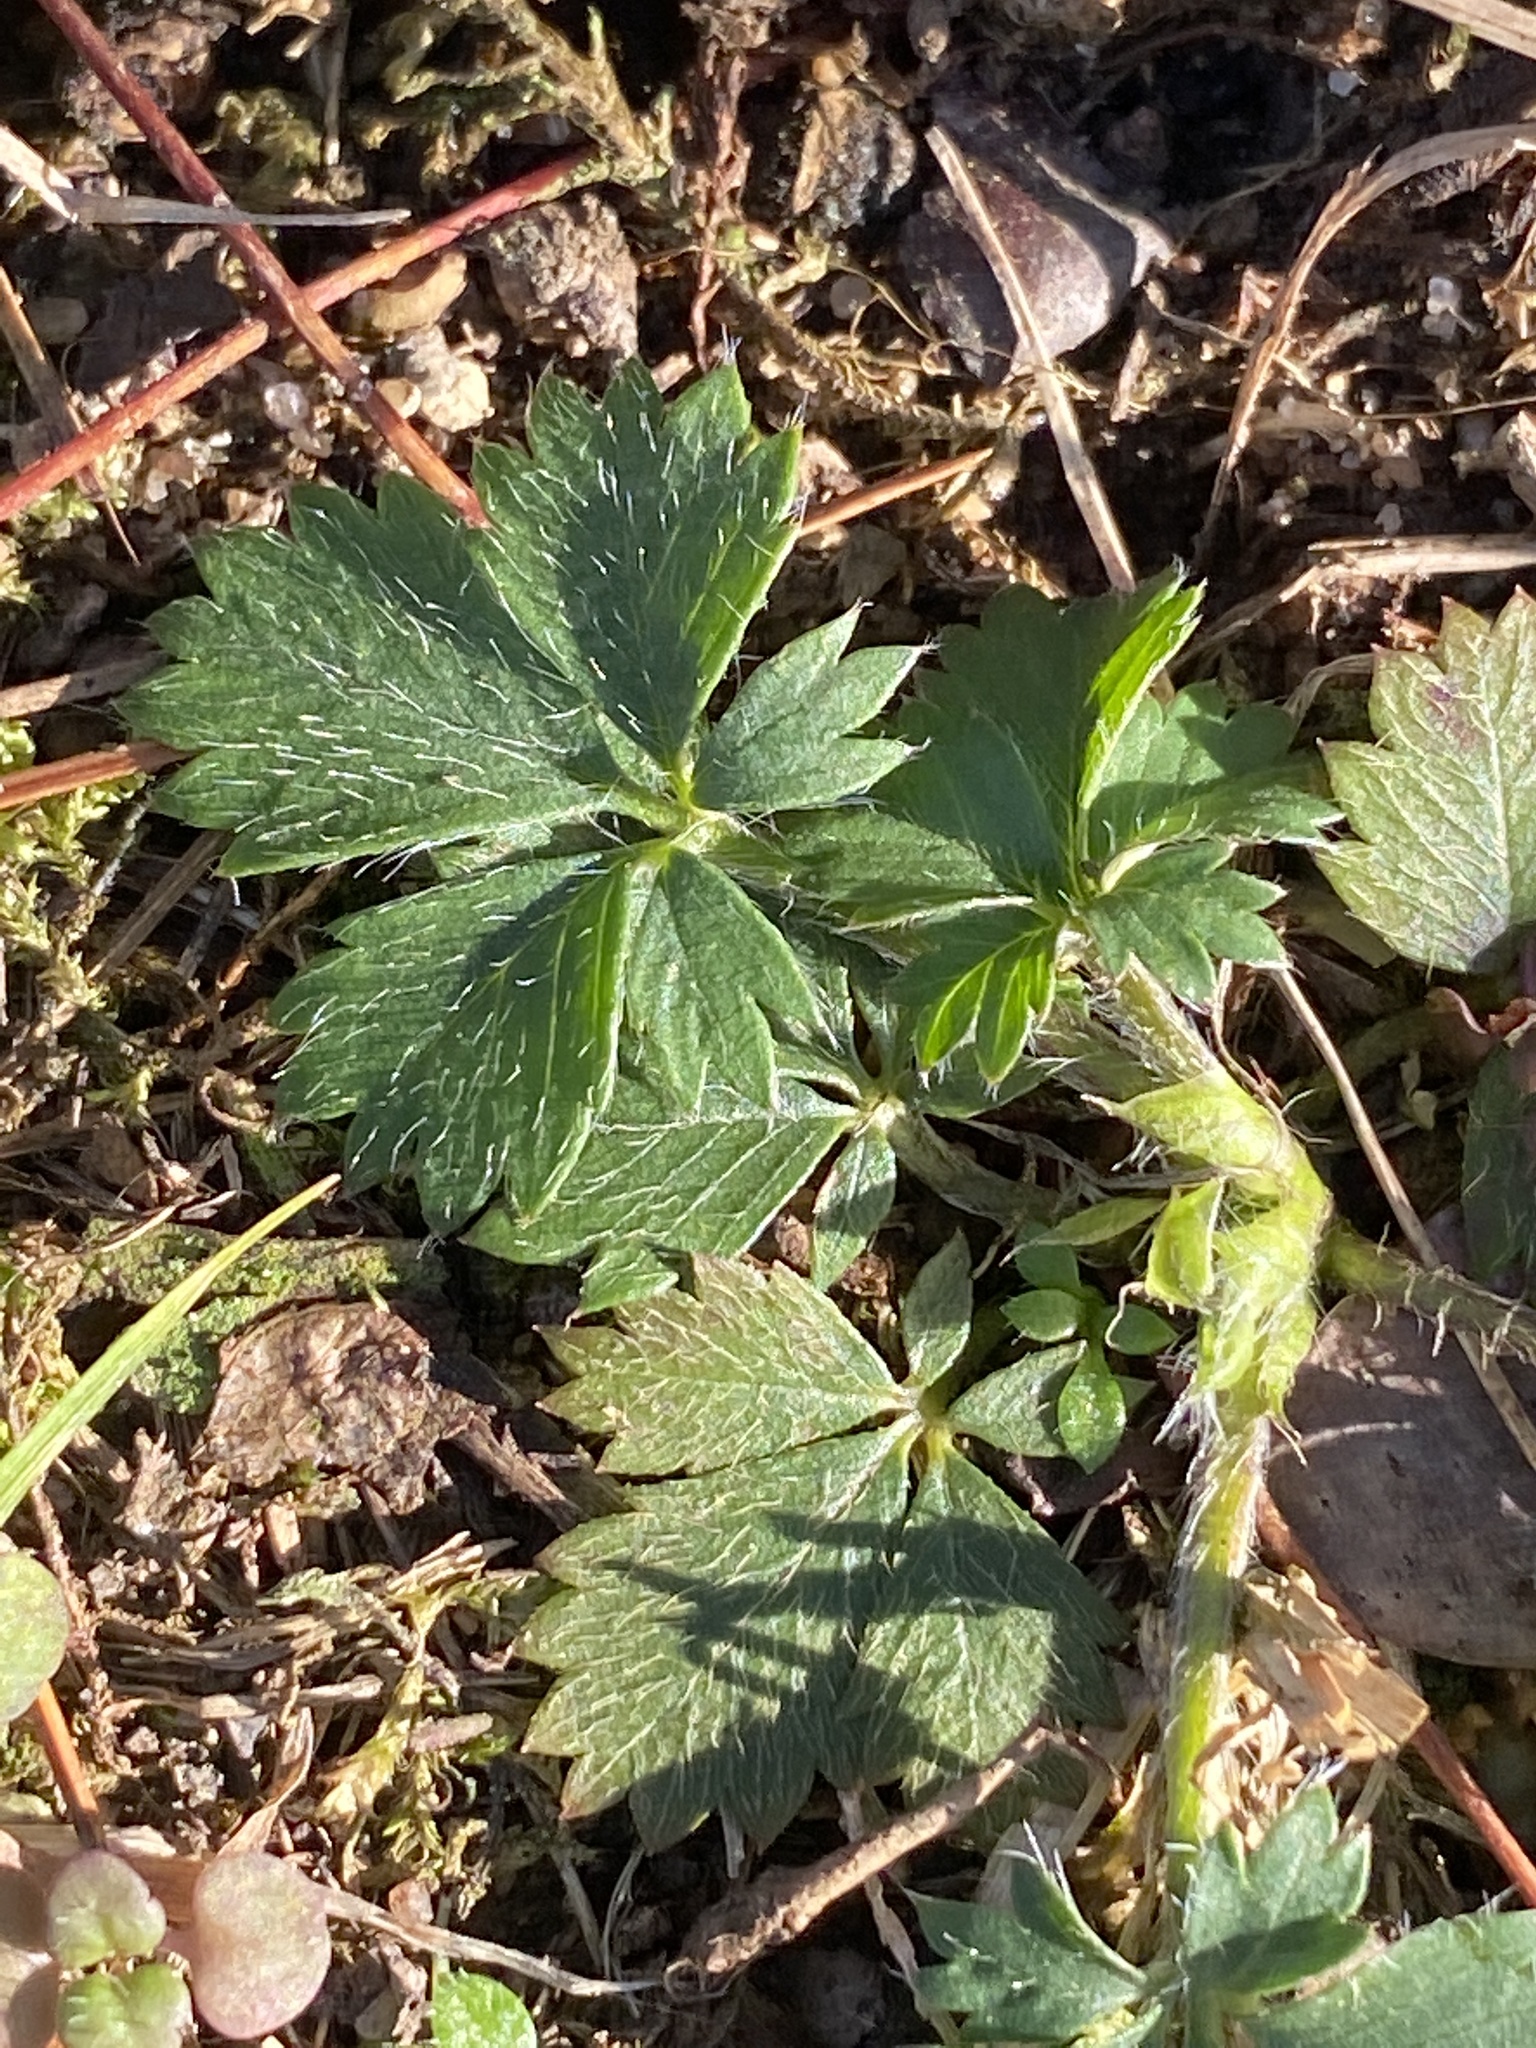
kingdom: Plantae
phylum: Tracheophyta
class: Magnoliopsida
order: Rosales
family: Rosaceae
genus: Potentilla
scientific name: Potentilla canadensis
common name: Canada cinquefoil
